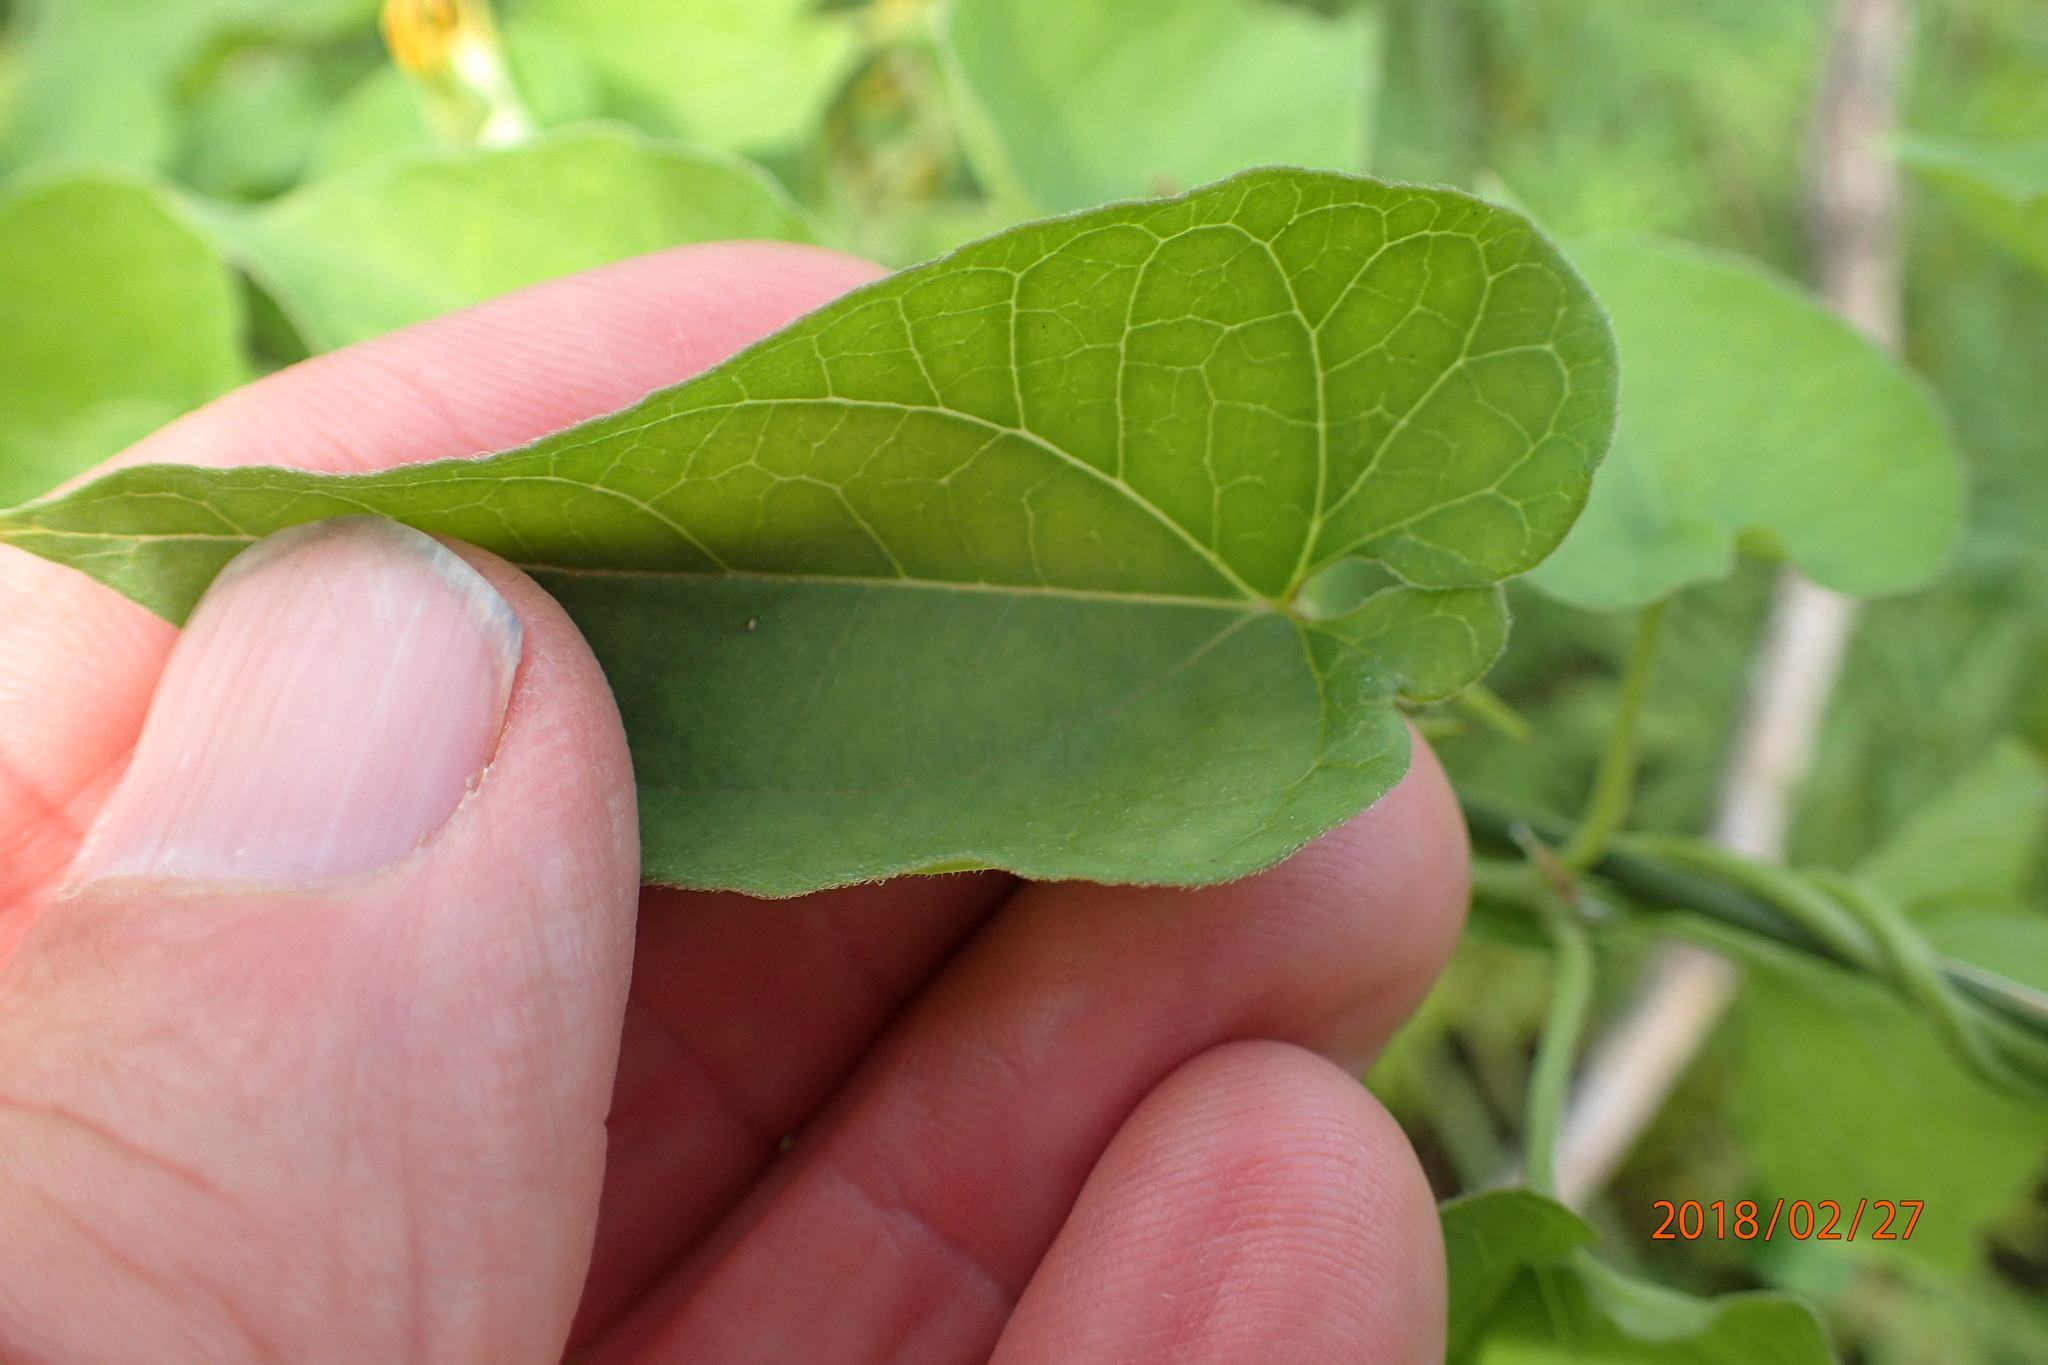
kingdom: Plantae
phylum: Tracheophyta
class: Magnoliopsida
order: Gentianales
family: Apocynaceae
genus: Riocreuxia
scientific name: Riocreuxia torulosa
